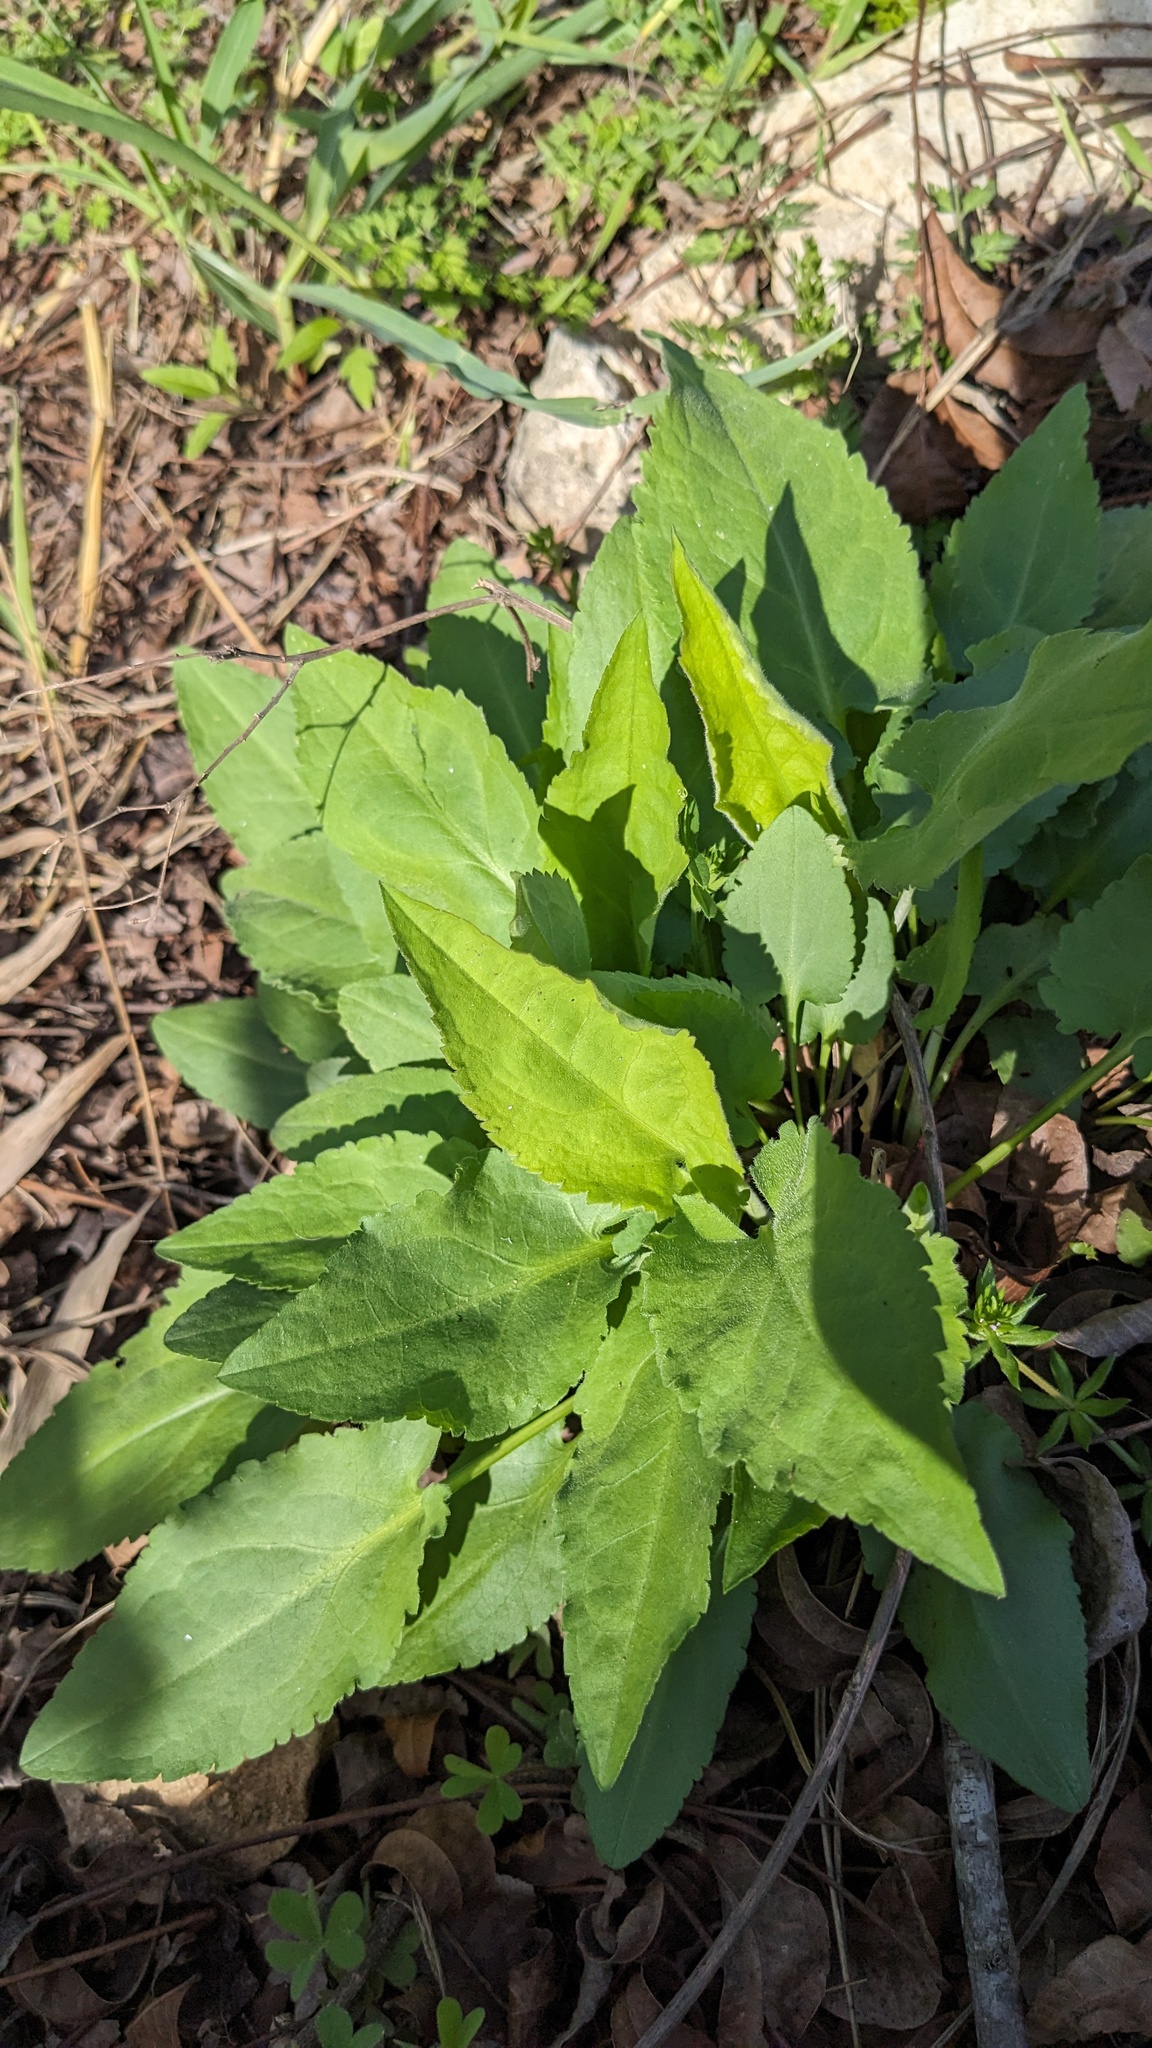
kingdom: Plantae
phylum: Tracheophyta
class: Magnoliopsida
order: Asterales
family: Asteraceae
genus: Symphyotrichum
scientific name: Symphyotrichum drummondii
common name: Drummond's aster
